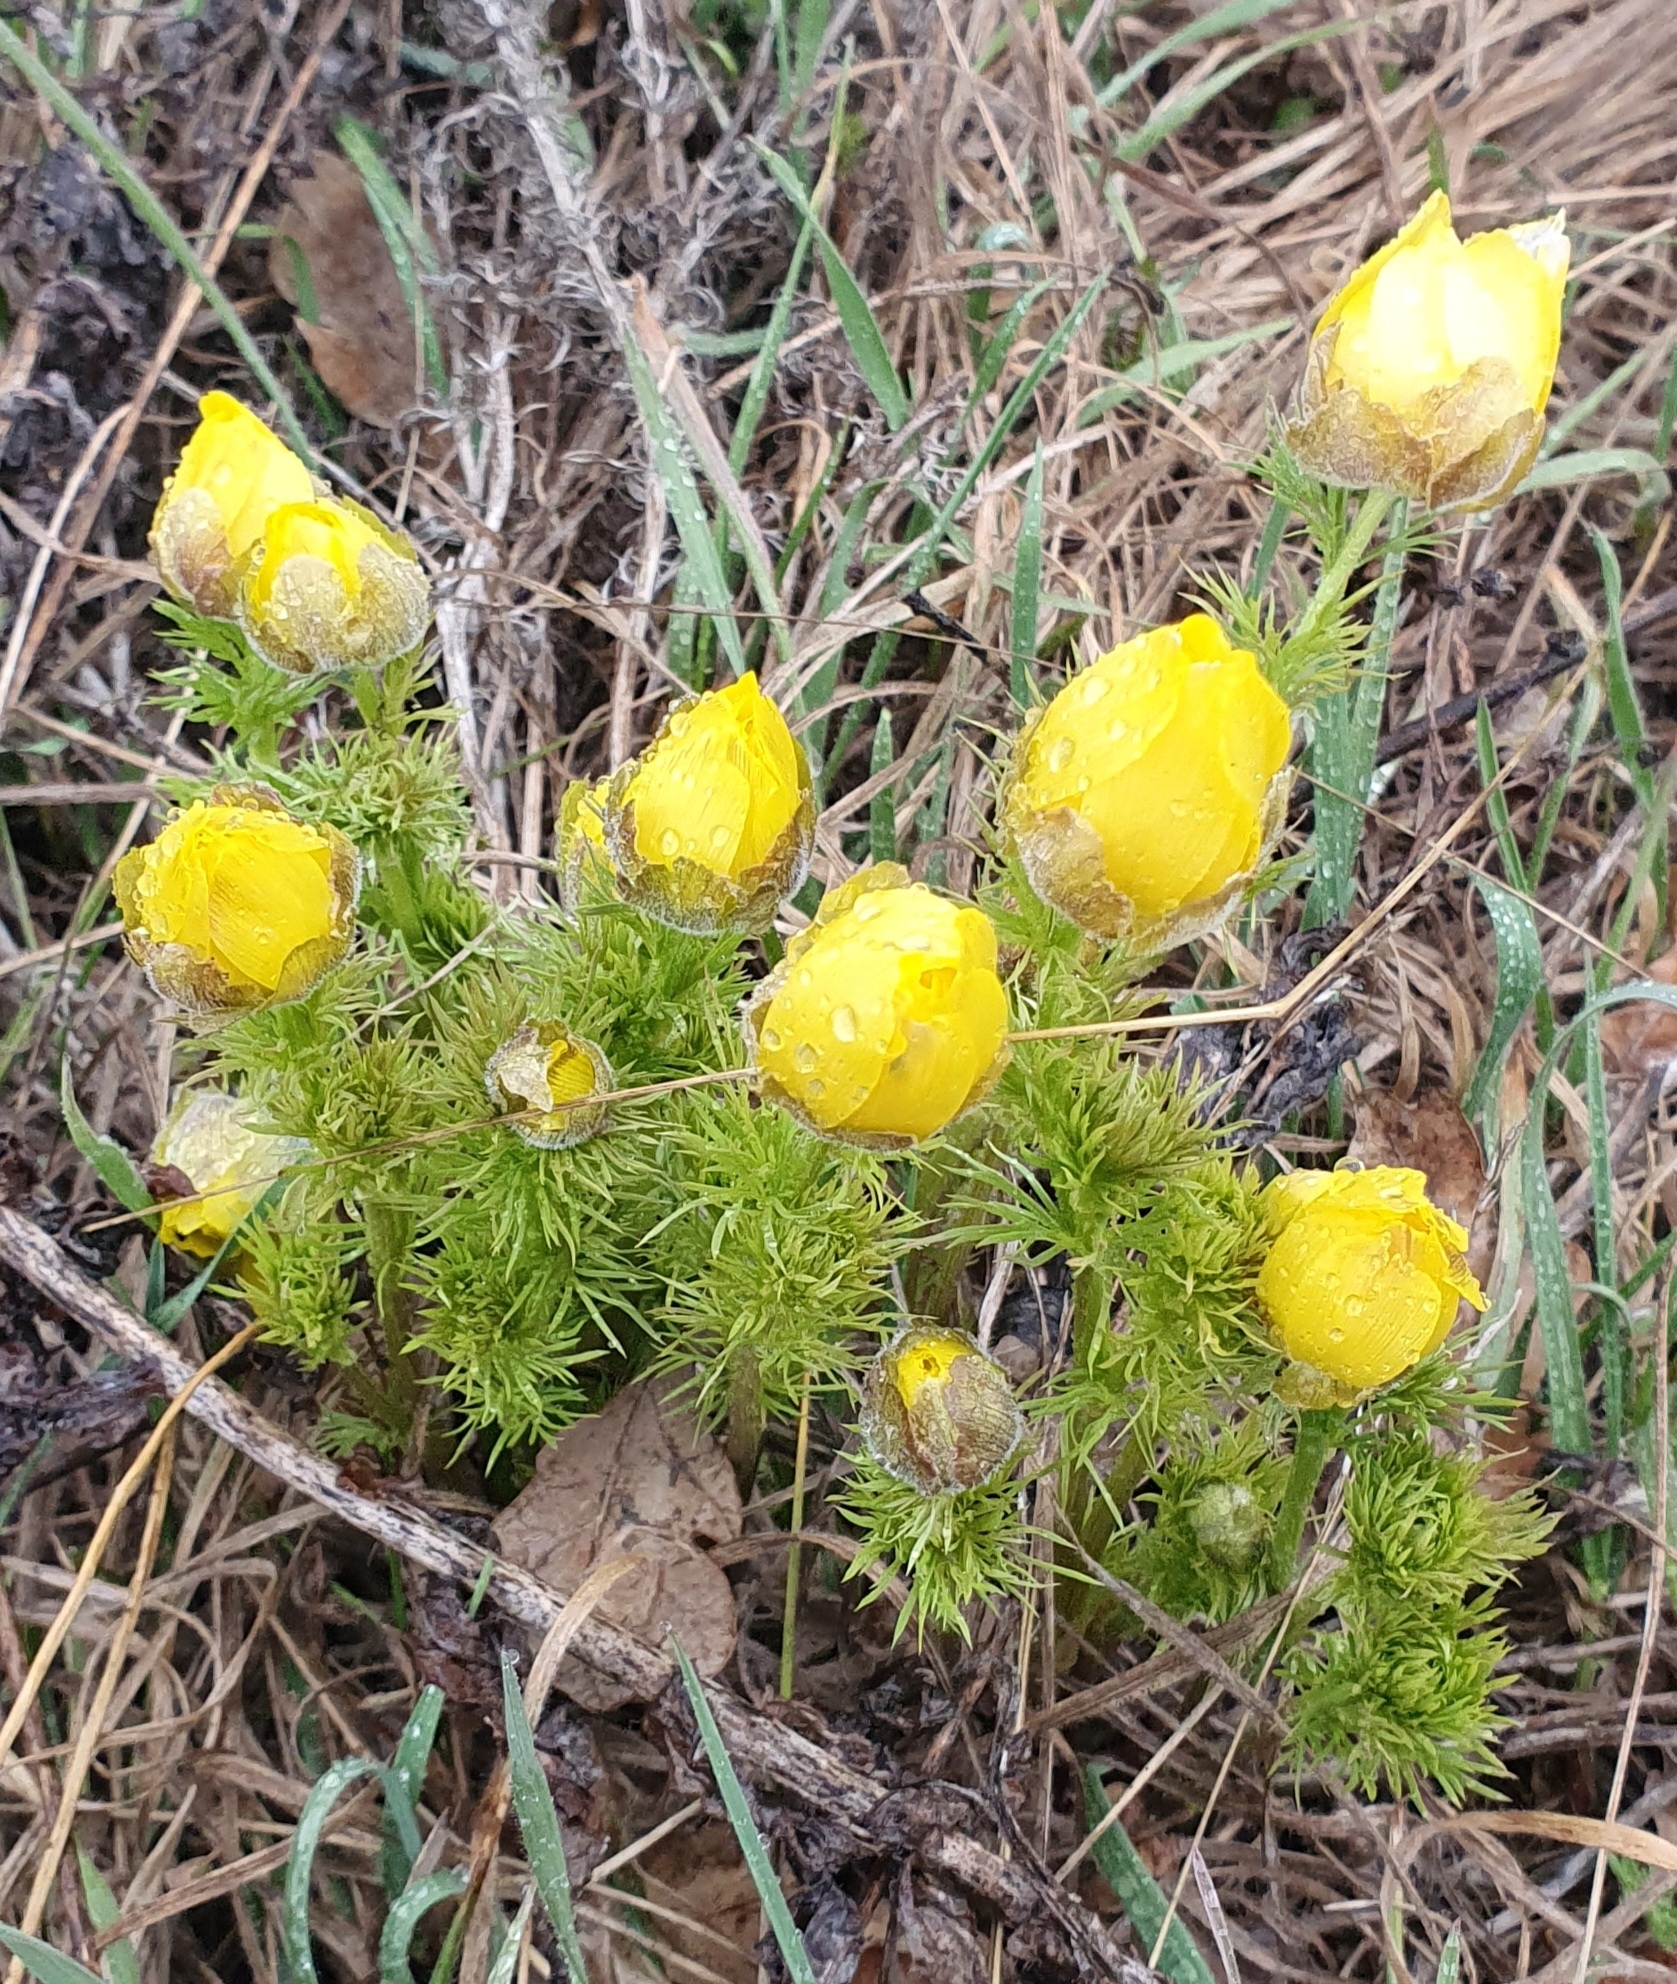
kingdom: Plantae
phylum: Tracheophyta
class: Magnoliopsida
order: Ranunculales
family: Ranunculaceae
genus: Adonis
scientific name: Adonis vernalis
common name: Yellow pheasants-eye
